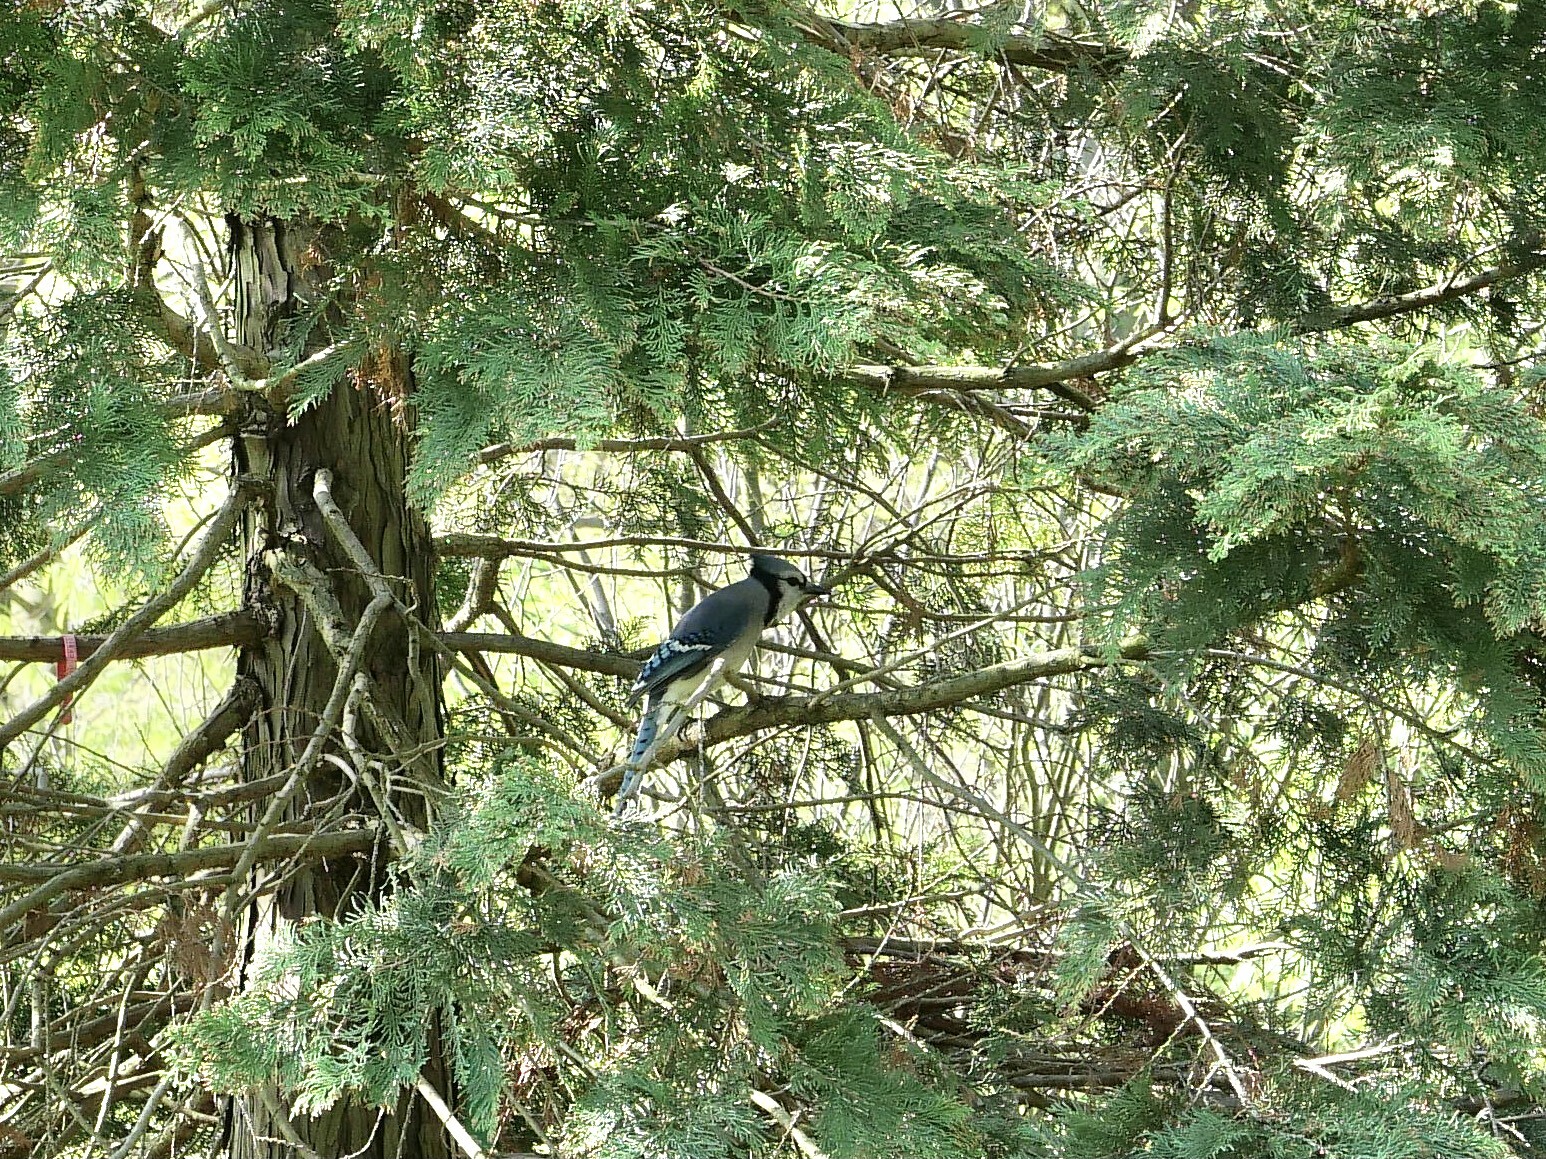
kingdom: Animalia
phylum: Chordata
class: Aves
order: Passeriformes
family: Corvidae
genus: Cyanocitta
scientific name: Cyanocitta cristata
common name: Blue jay
